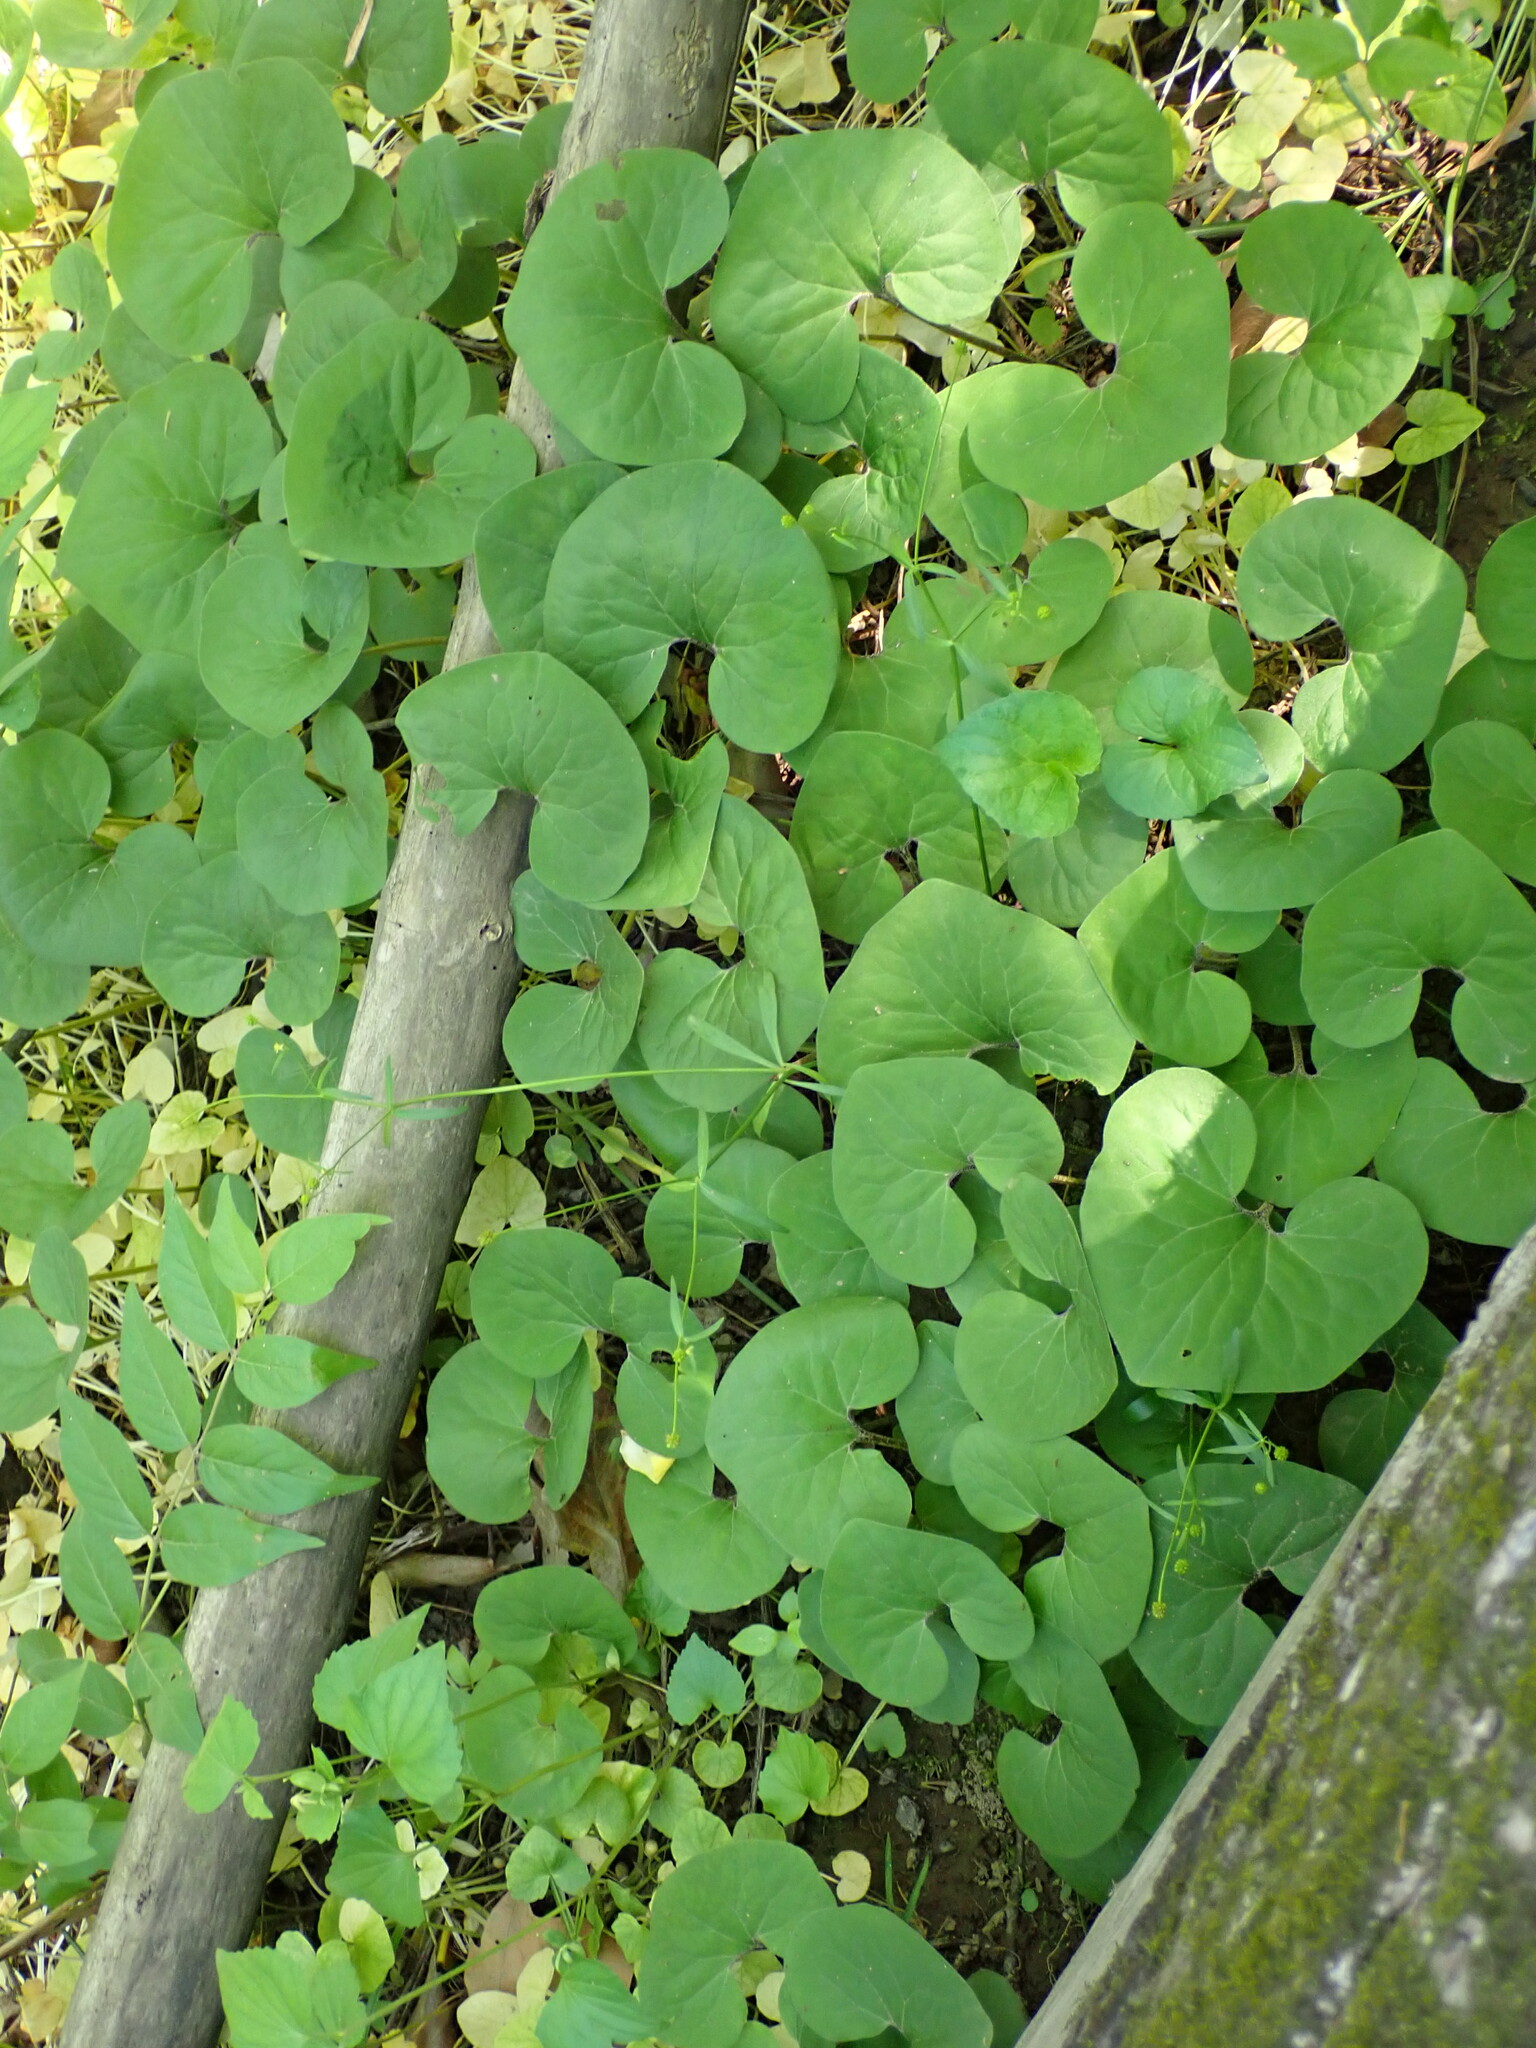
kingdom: Plantae
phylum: Tracheophyta
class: Magnoliopsida
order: Piperales
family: Aristolochiaceae
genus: Asarum
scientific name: Asarum canadense
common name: Wild ginger
